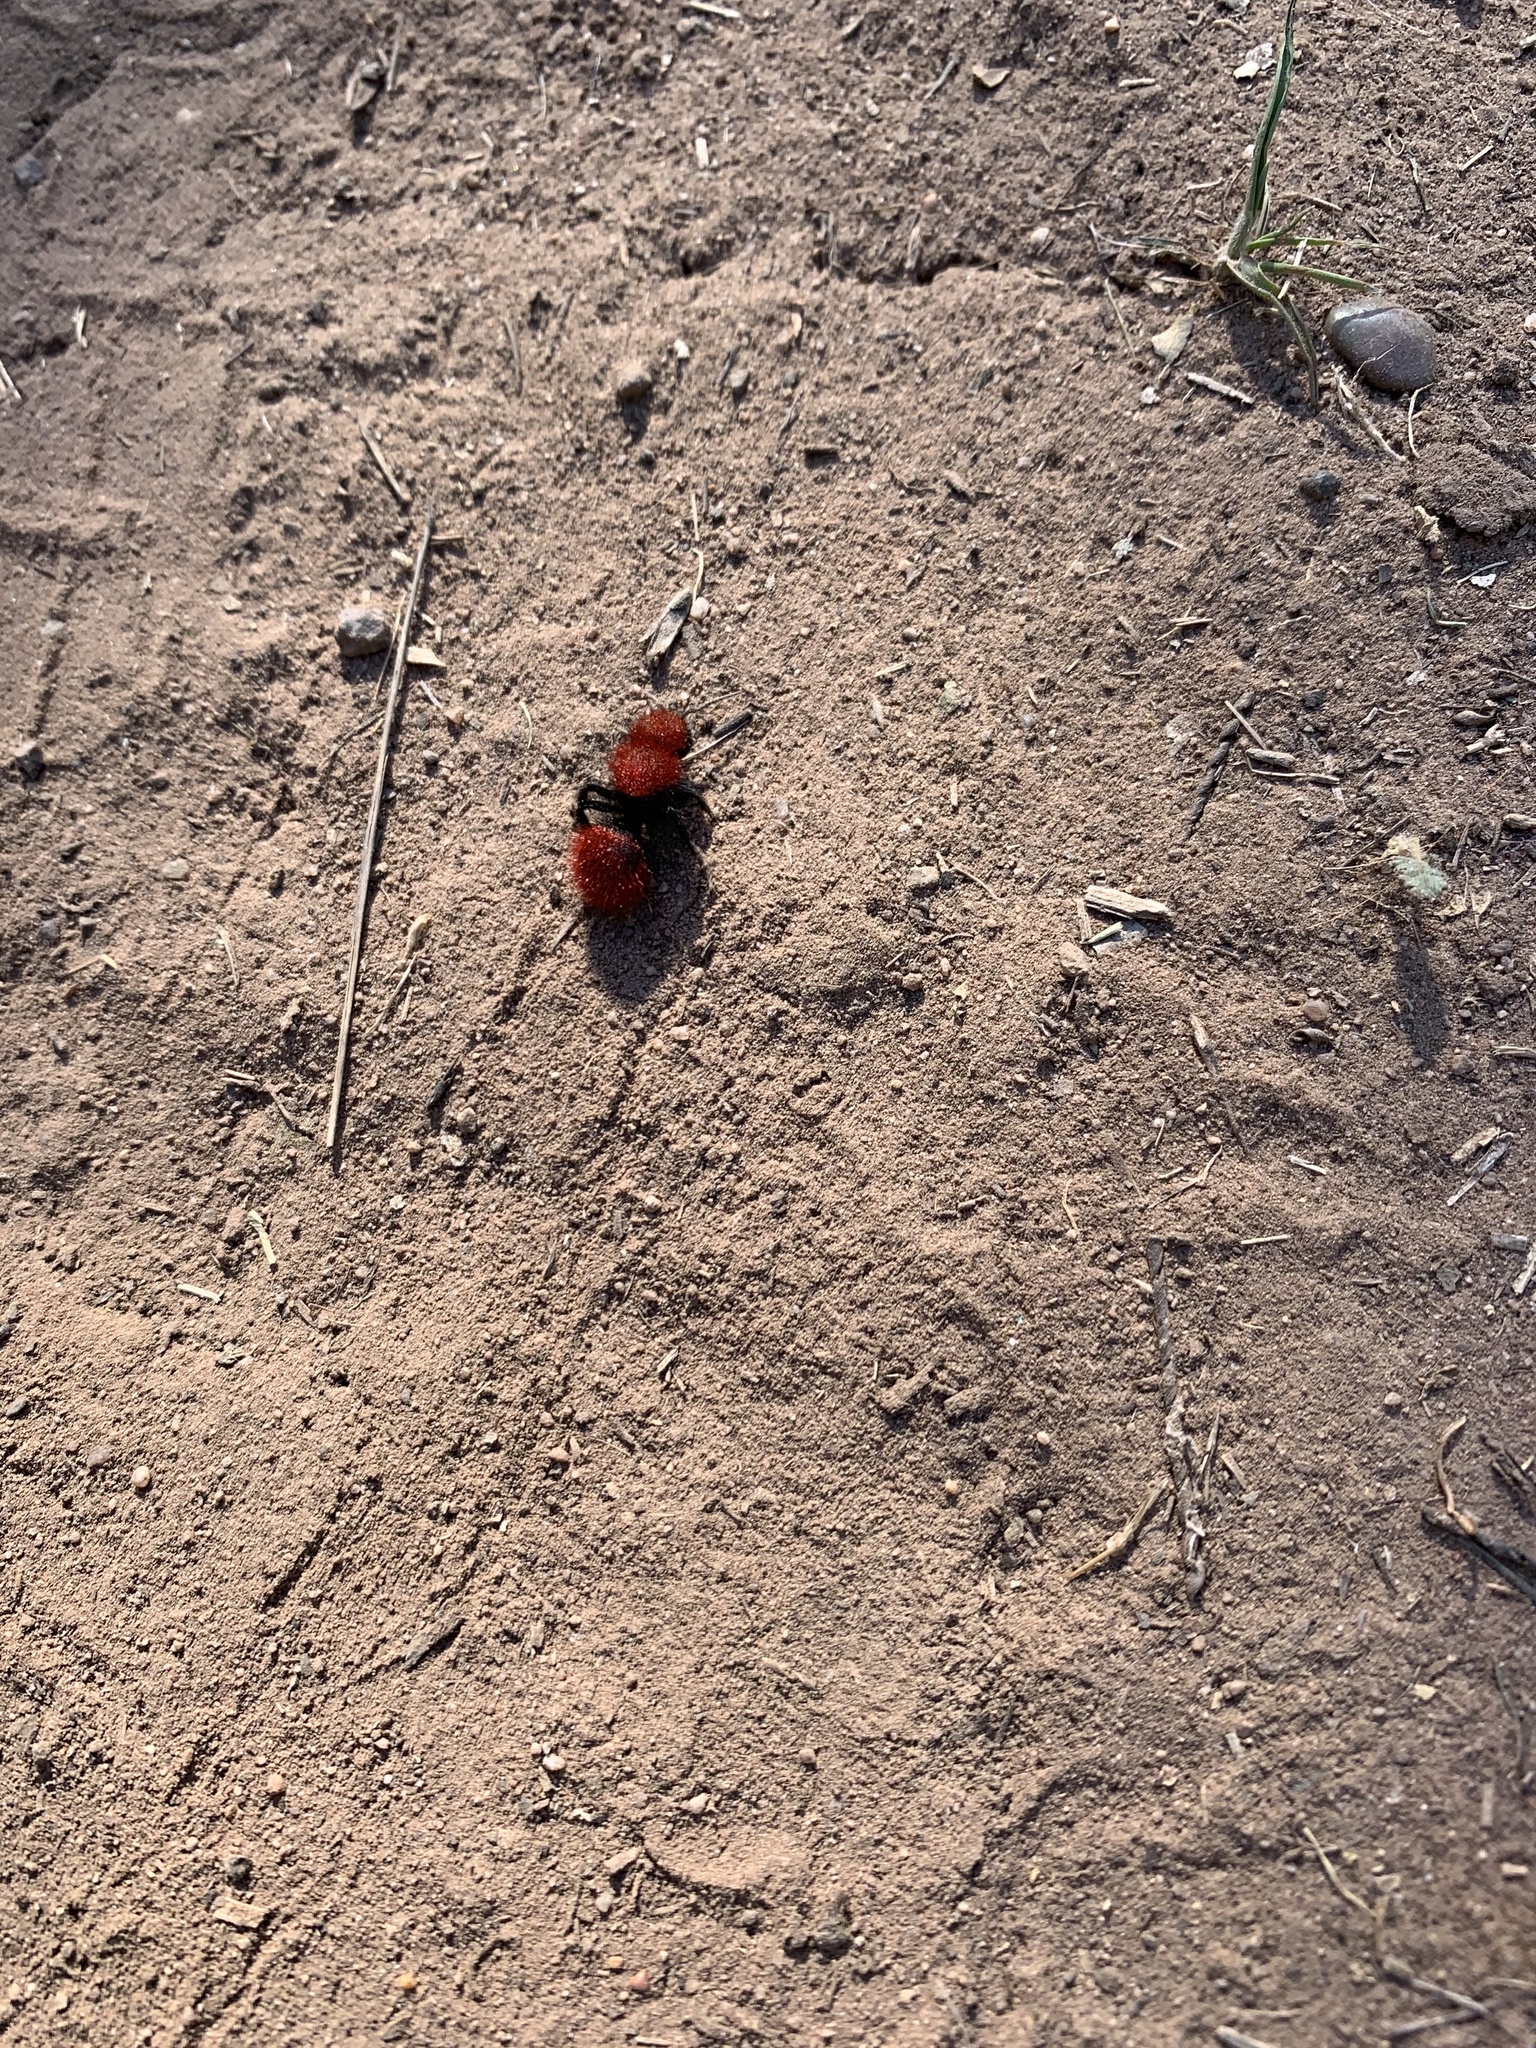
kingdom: Animalia
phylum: Arthropoda
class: Insecta
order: Hymenoptera
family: Mutillidae
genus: Dasymutilla
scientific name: Dasymutilla
